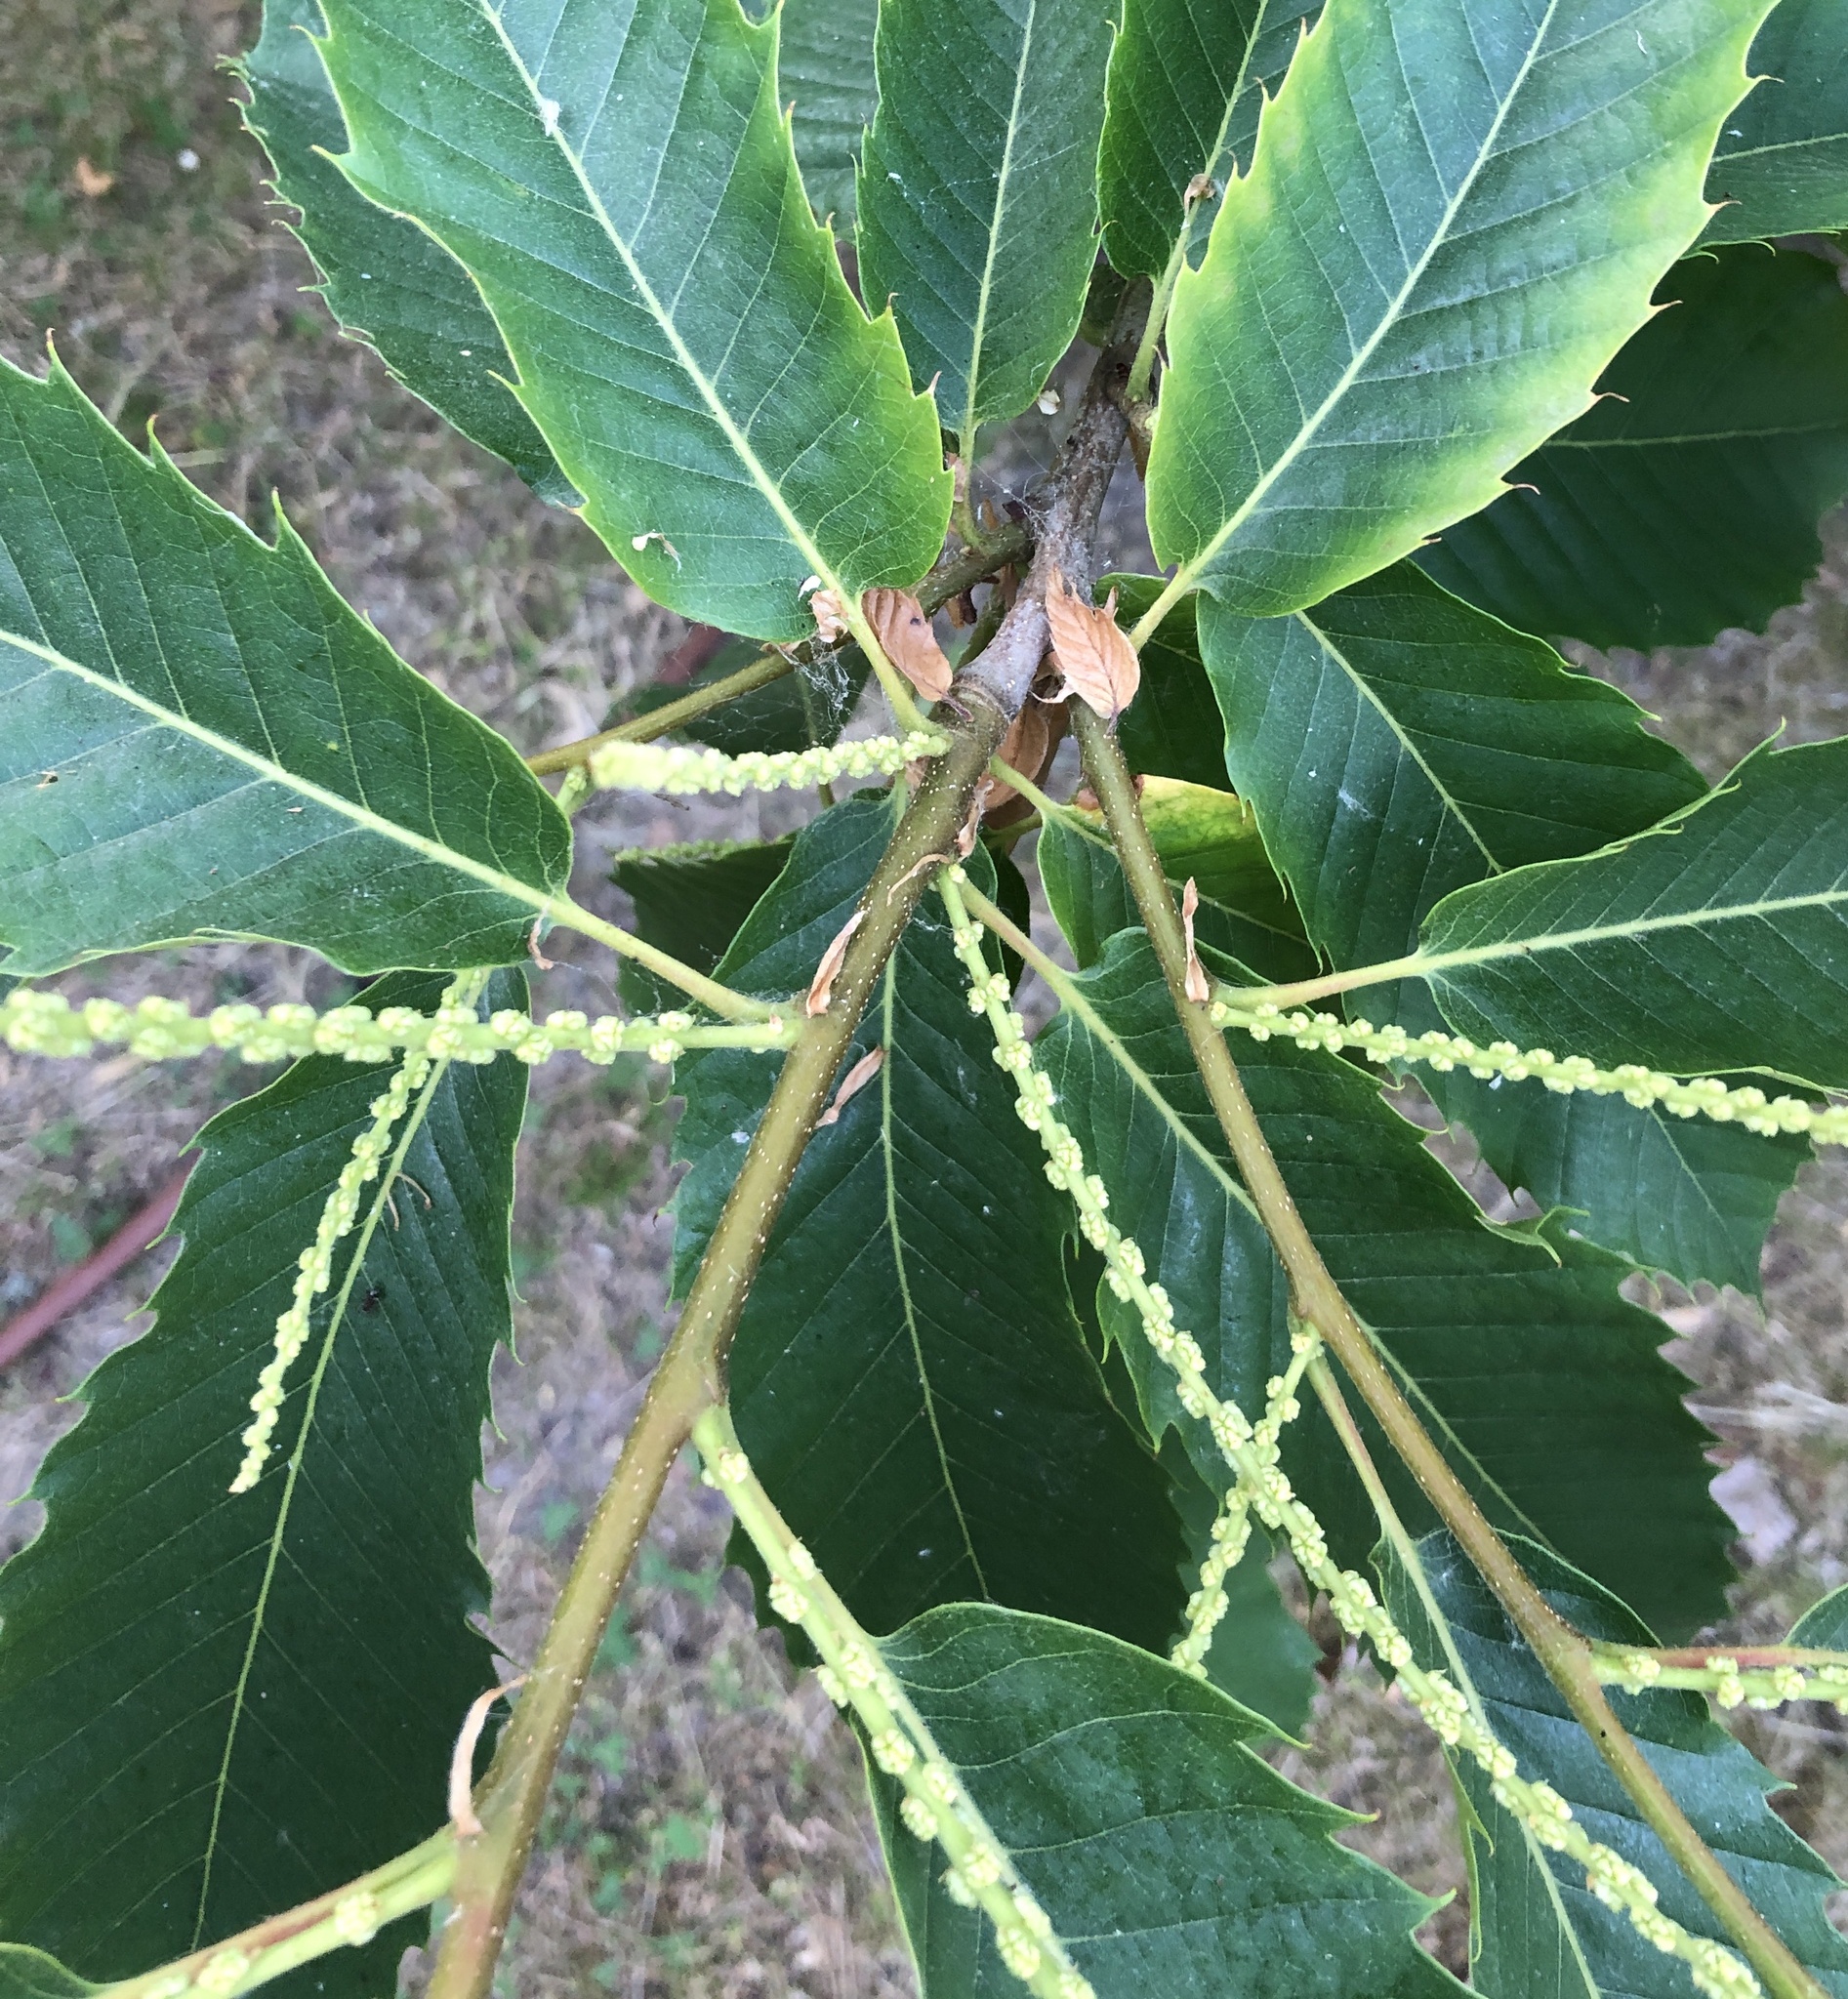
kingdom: Plantae
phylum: Tracheophyta
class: Magnoliopsida
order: Fagales
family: Fagaceae
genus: Castanea
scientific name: Castanea sativa
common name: Sweet chestnut
